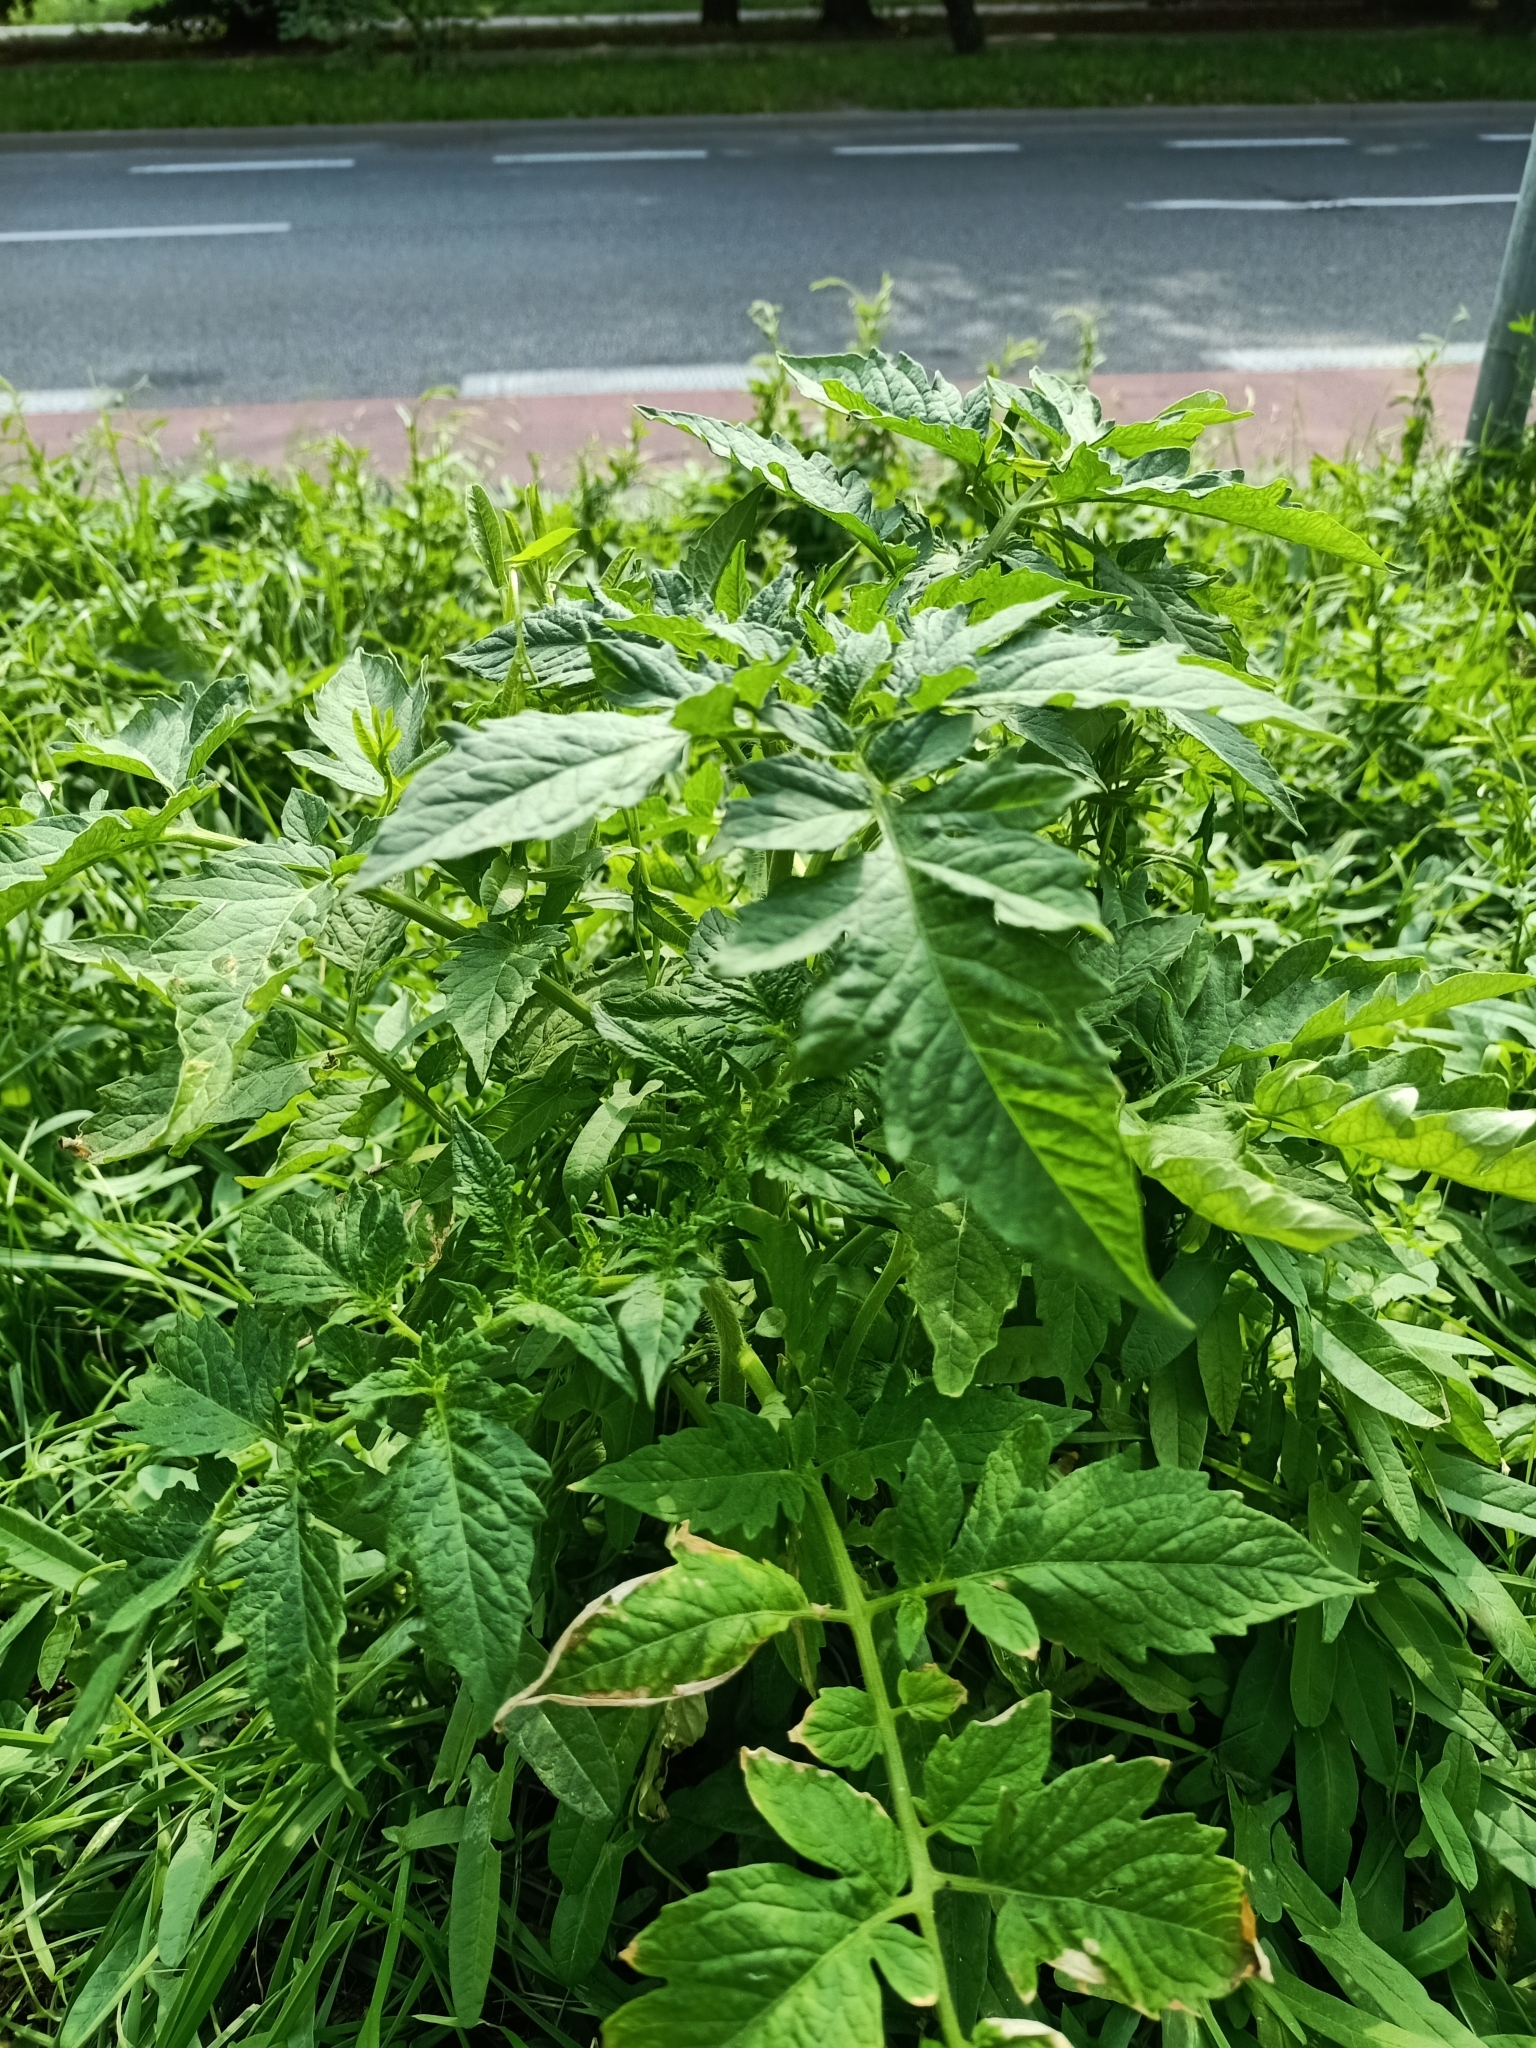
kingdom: Plantae
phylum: Tracheophyta
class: Magnoliopsida
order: Solanales
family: Solanaceae
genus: Solanum
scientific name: Solanum lycopersicum
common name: Garden tomato
